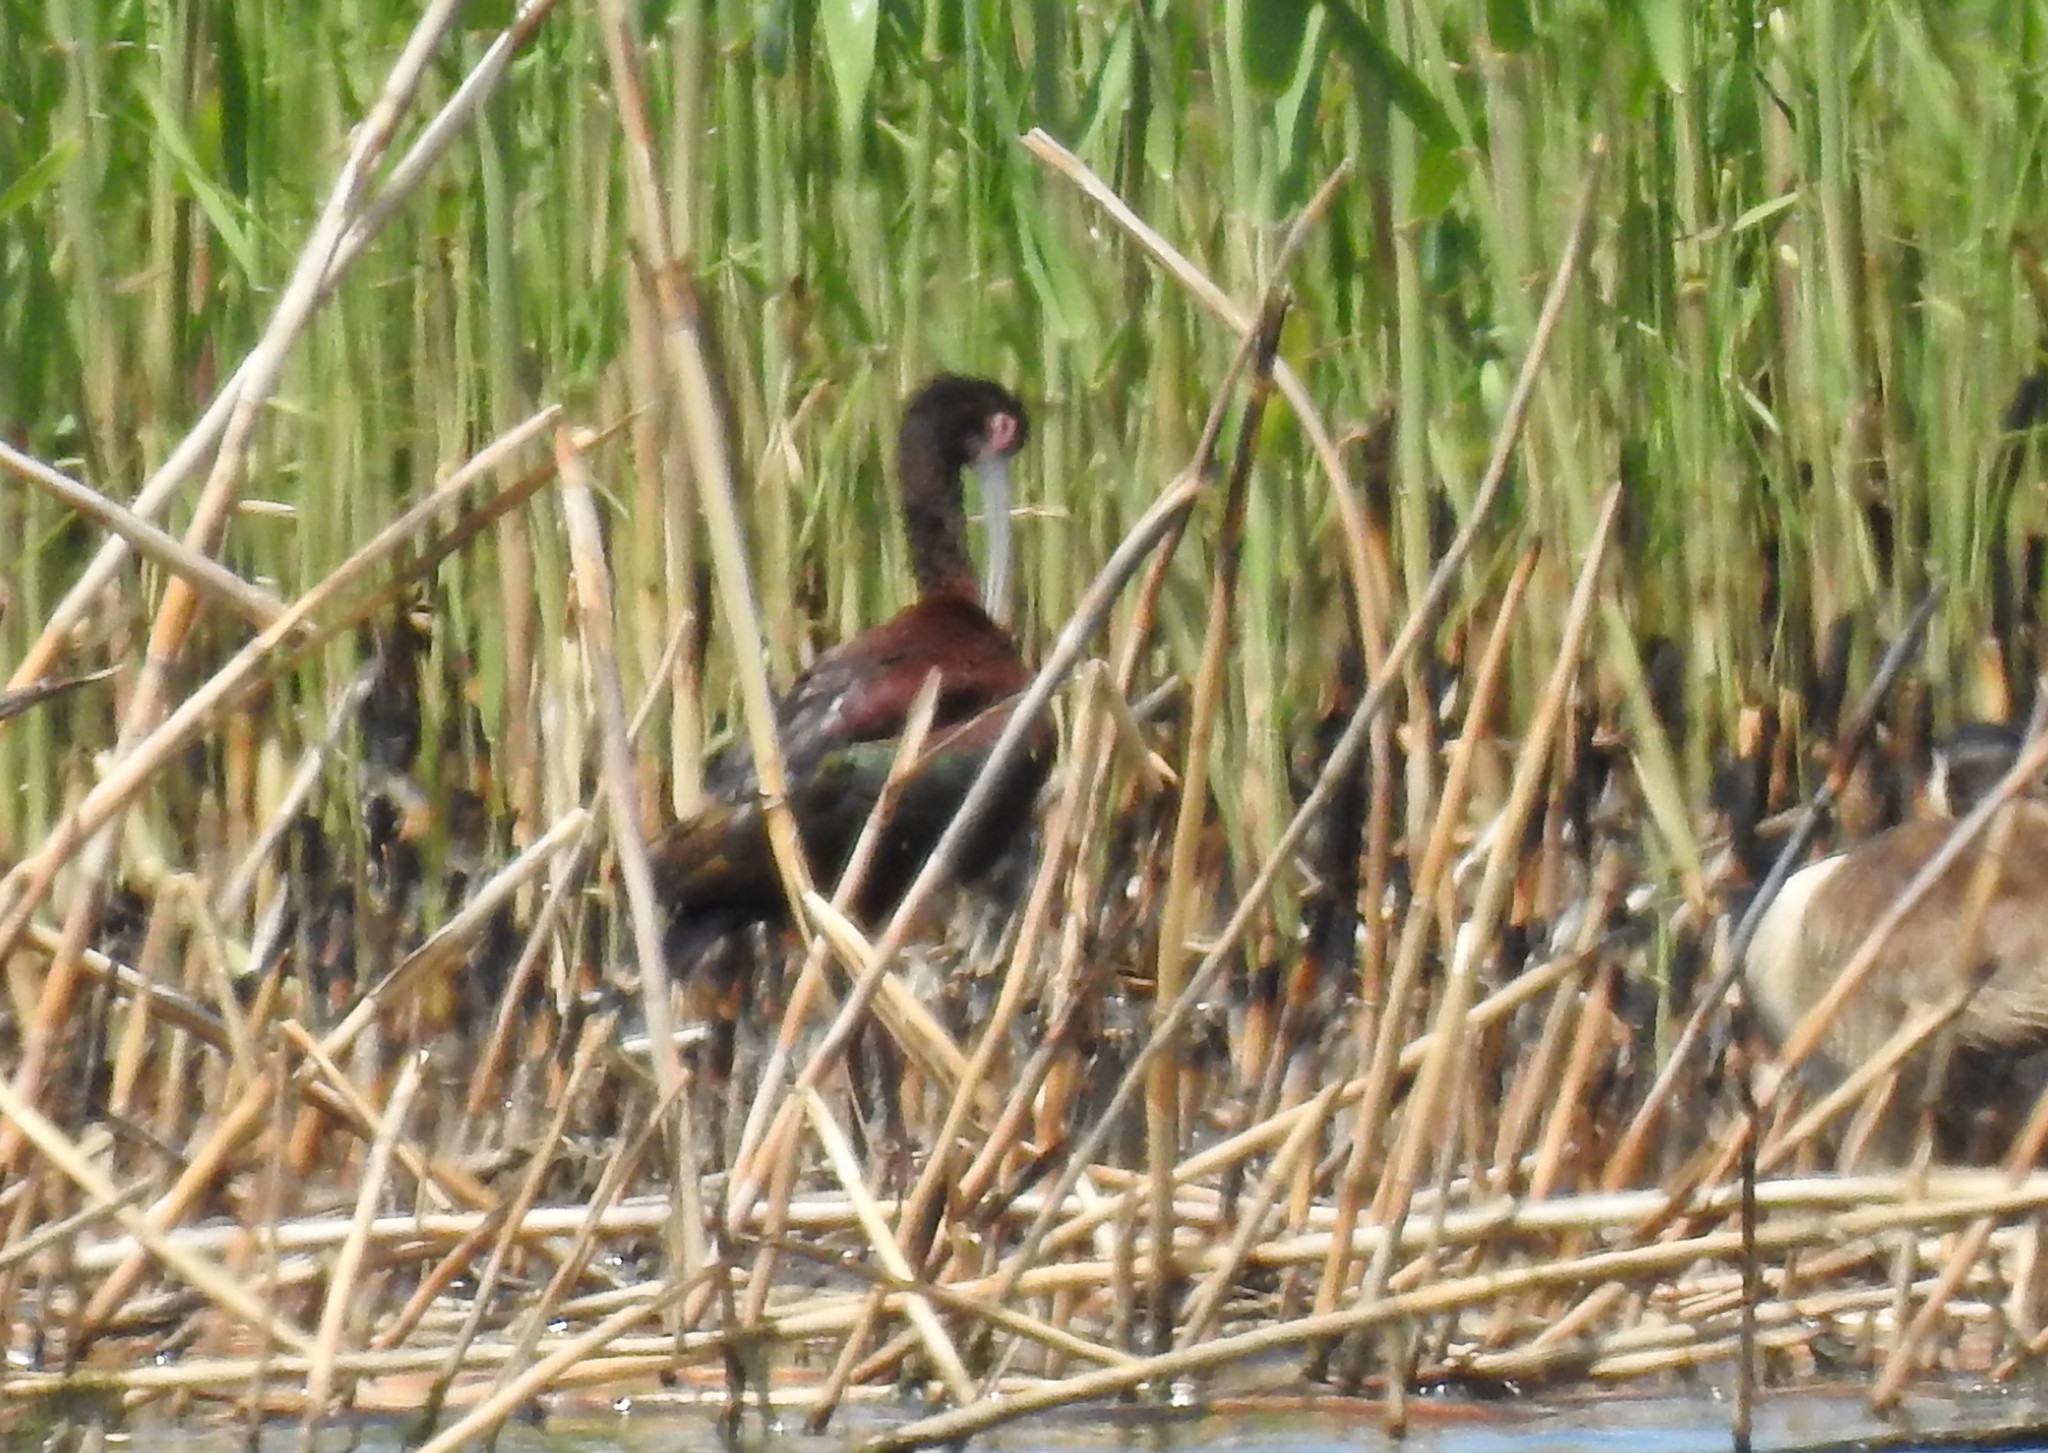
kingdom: Animalia
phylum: Chordata
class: Aves
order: Pelecaniformes
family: Threskiornithidae
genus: Plegadis
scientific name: Plegadis chihi
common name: White-faced ibis
